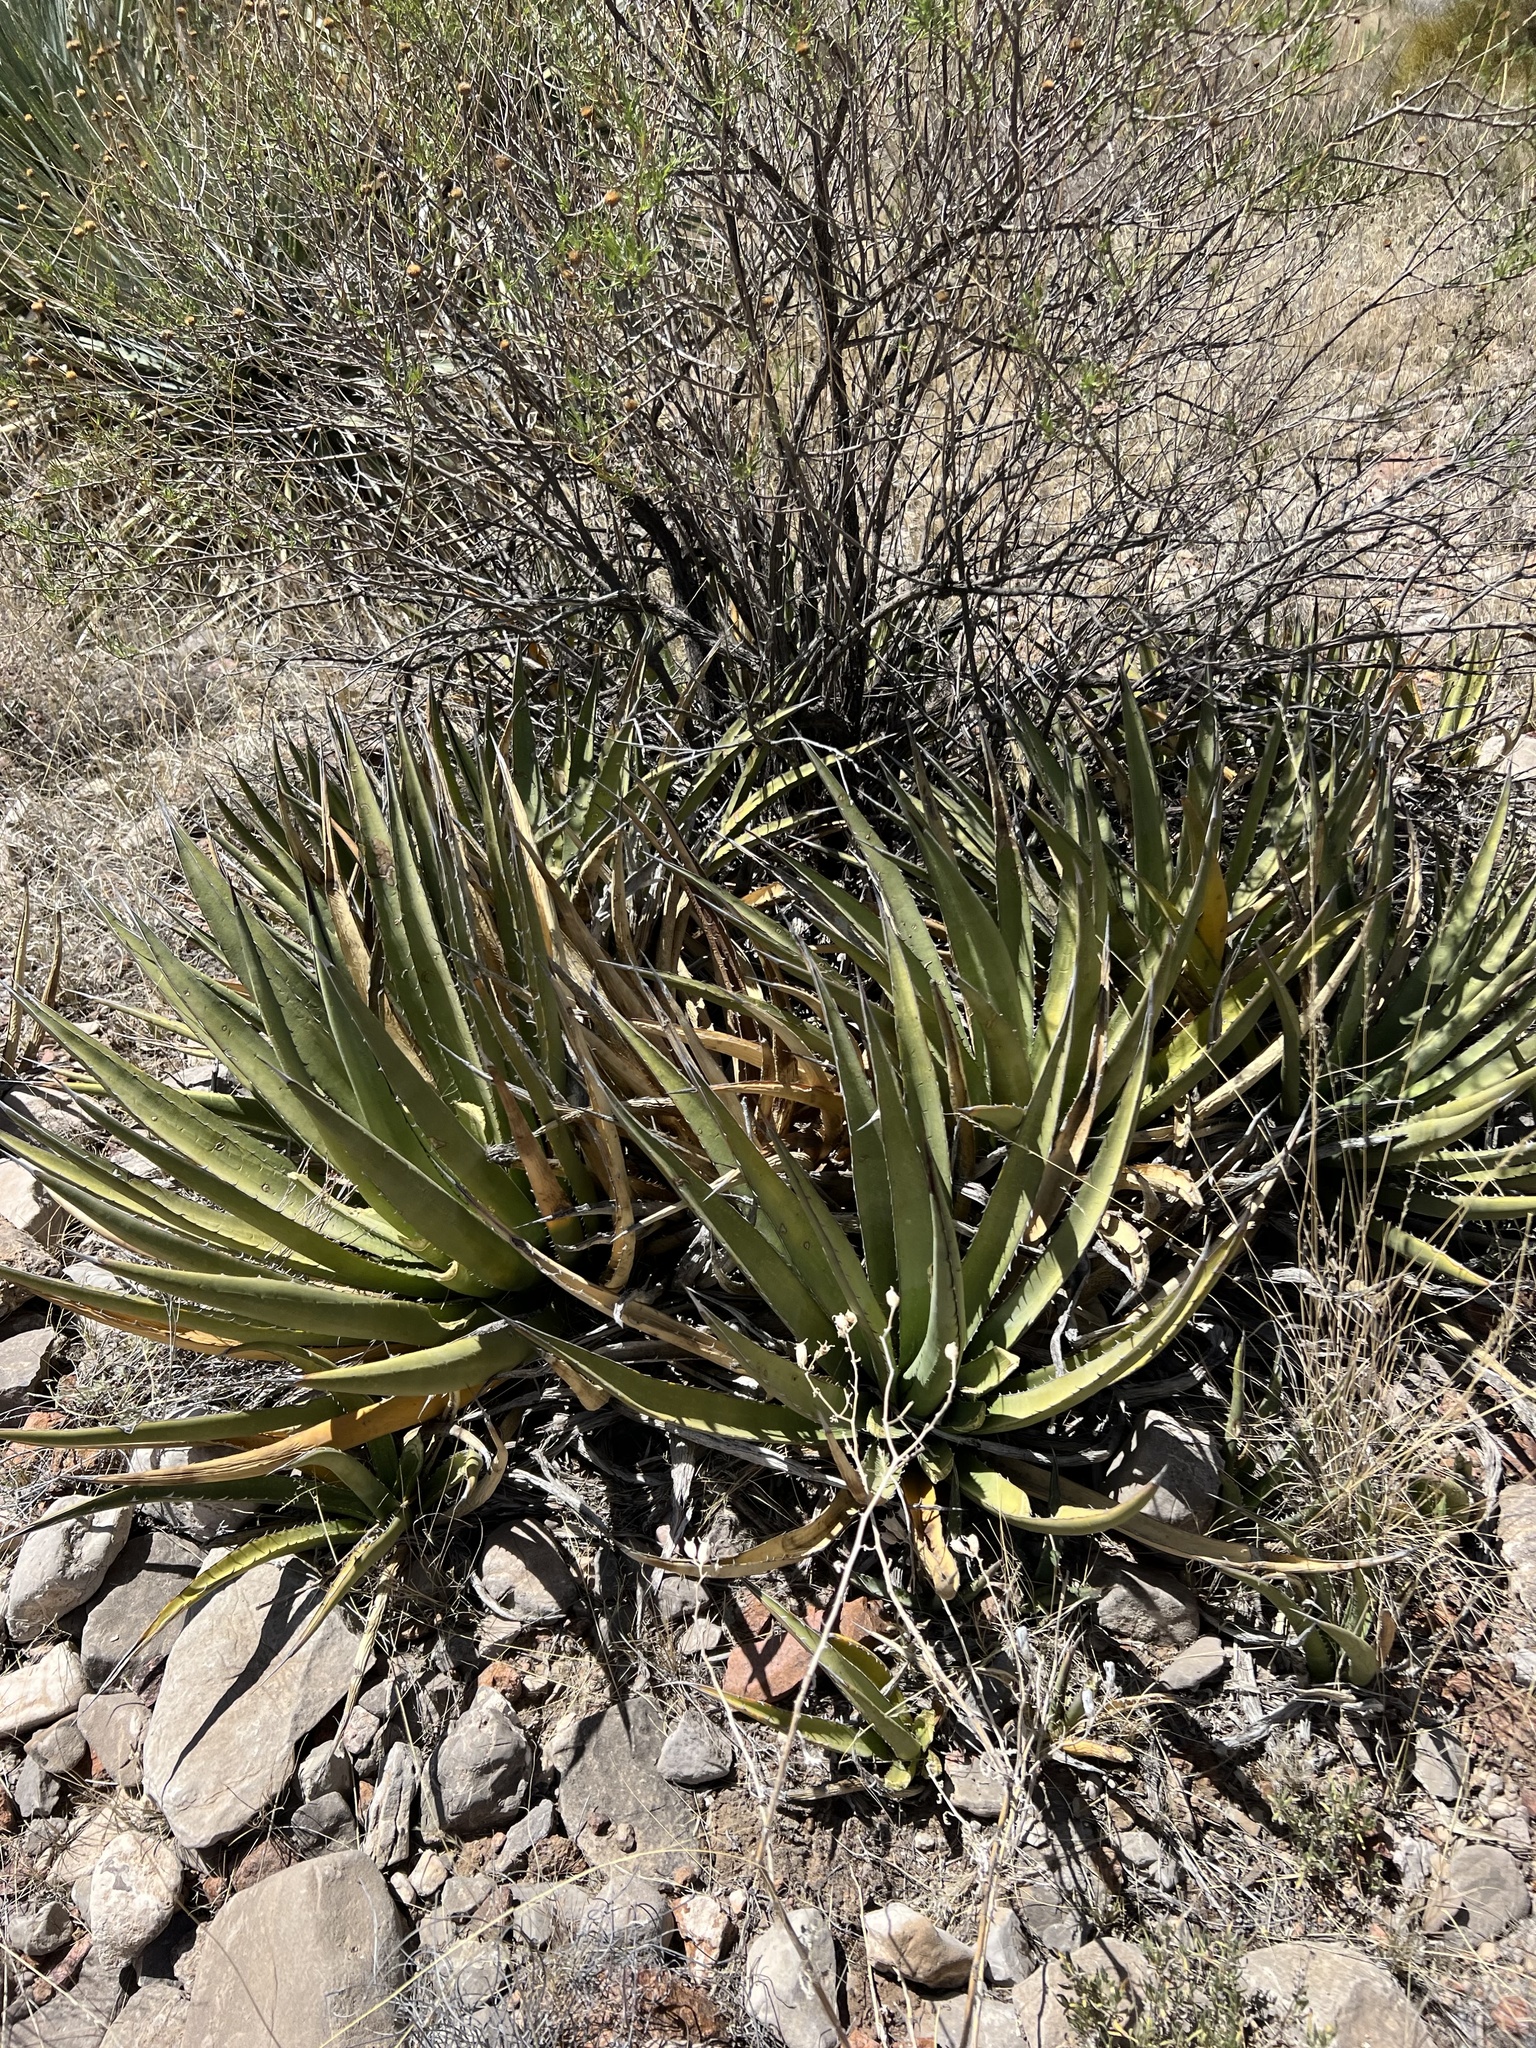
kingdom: Plantae
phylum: Tracheophyta
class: Liliopsida
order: Asparagales
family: Asparagaceae
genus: Agave
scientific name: Agave lechuguilla
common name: Lecheguilla agave
